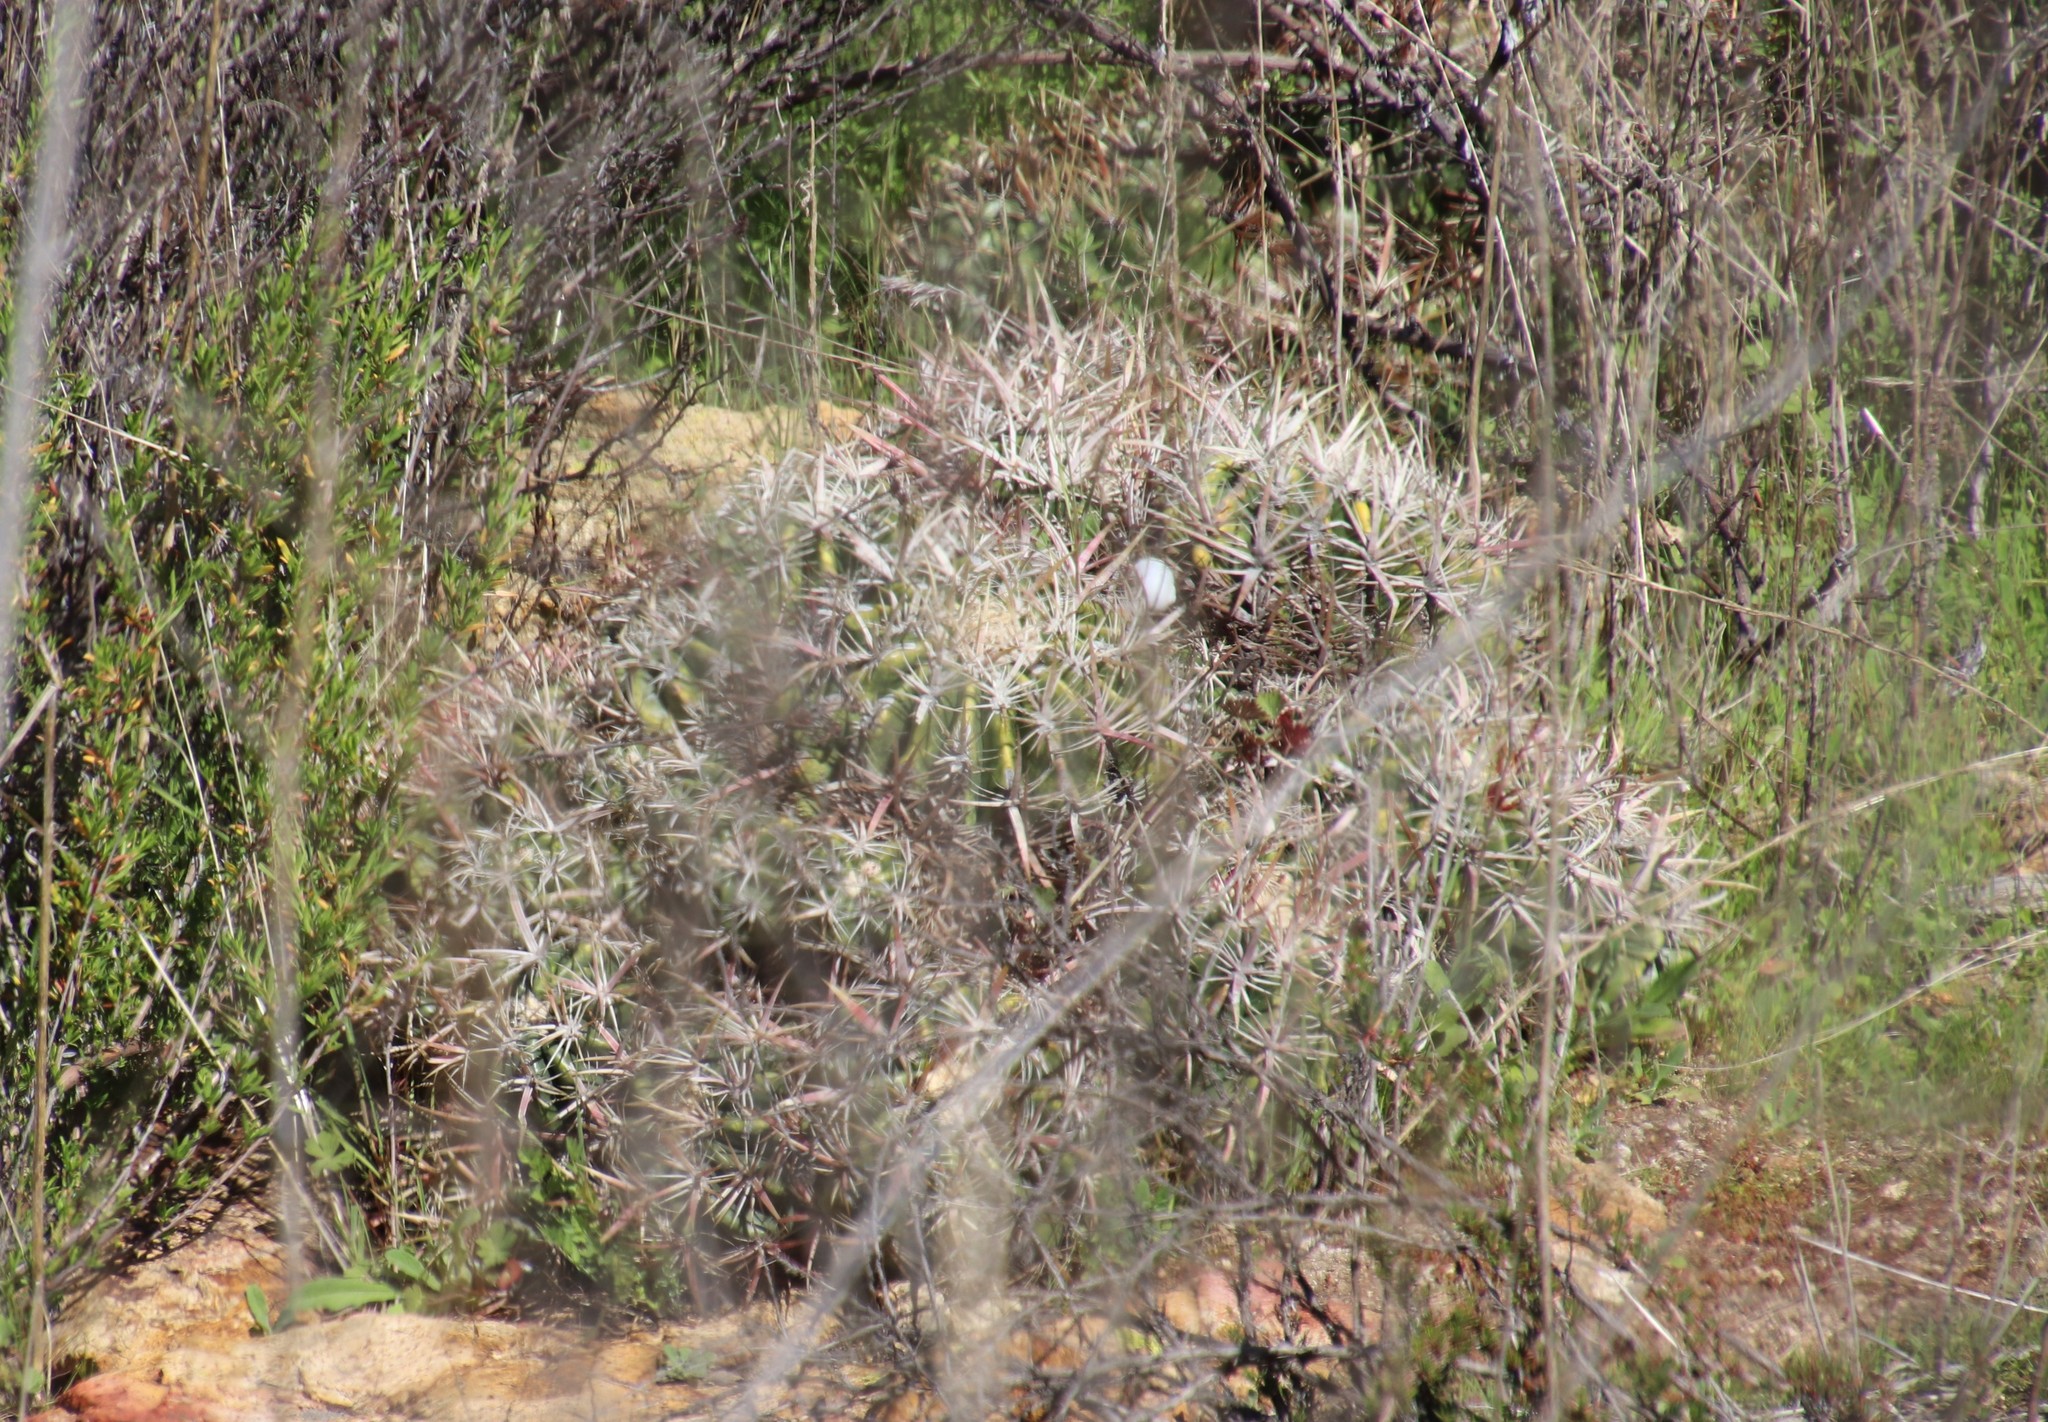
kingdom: Plantae
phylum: Tracheophyta
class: Magnoliopsida
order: Caryophyllales
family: Cactaceae
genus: Ferocactus
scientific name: Ferocactus viridescens
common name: San diego barrel cactus
